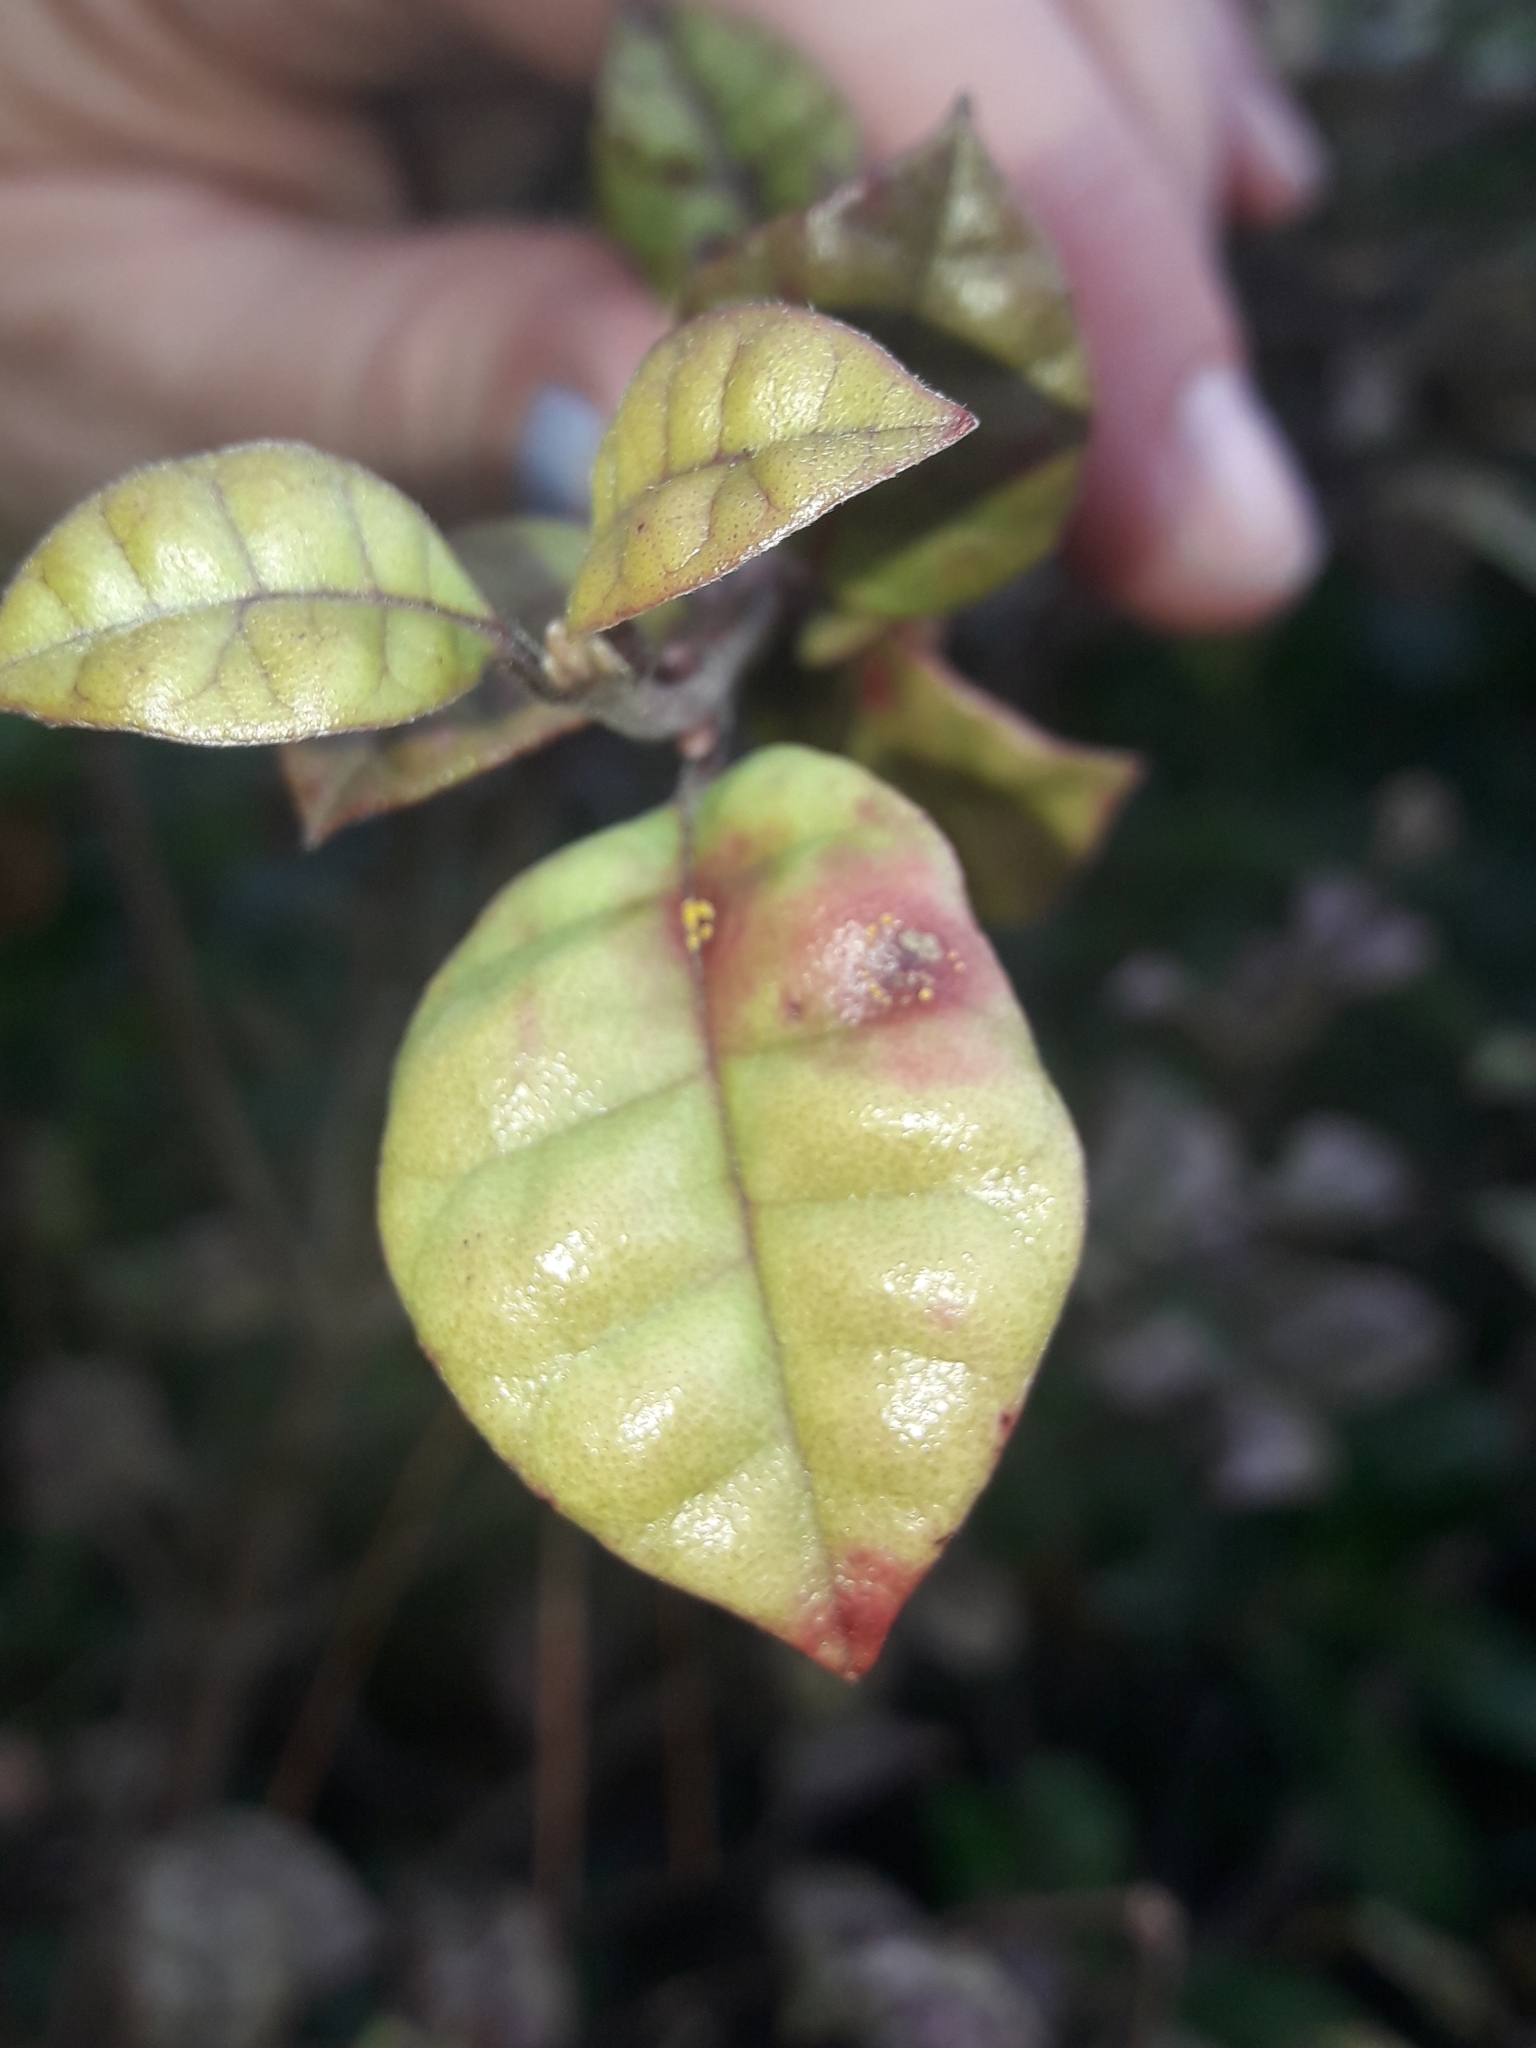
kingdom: Fungi
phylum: Basidiomycota
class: Pucciniomycetes
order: Pucciniales
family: Sphaerophragmiaceae
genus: Austropuccinia
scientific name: Austropuccinia psidii
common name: Myrtle rust
